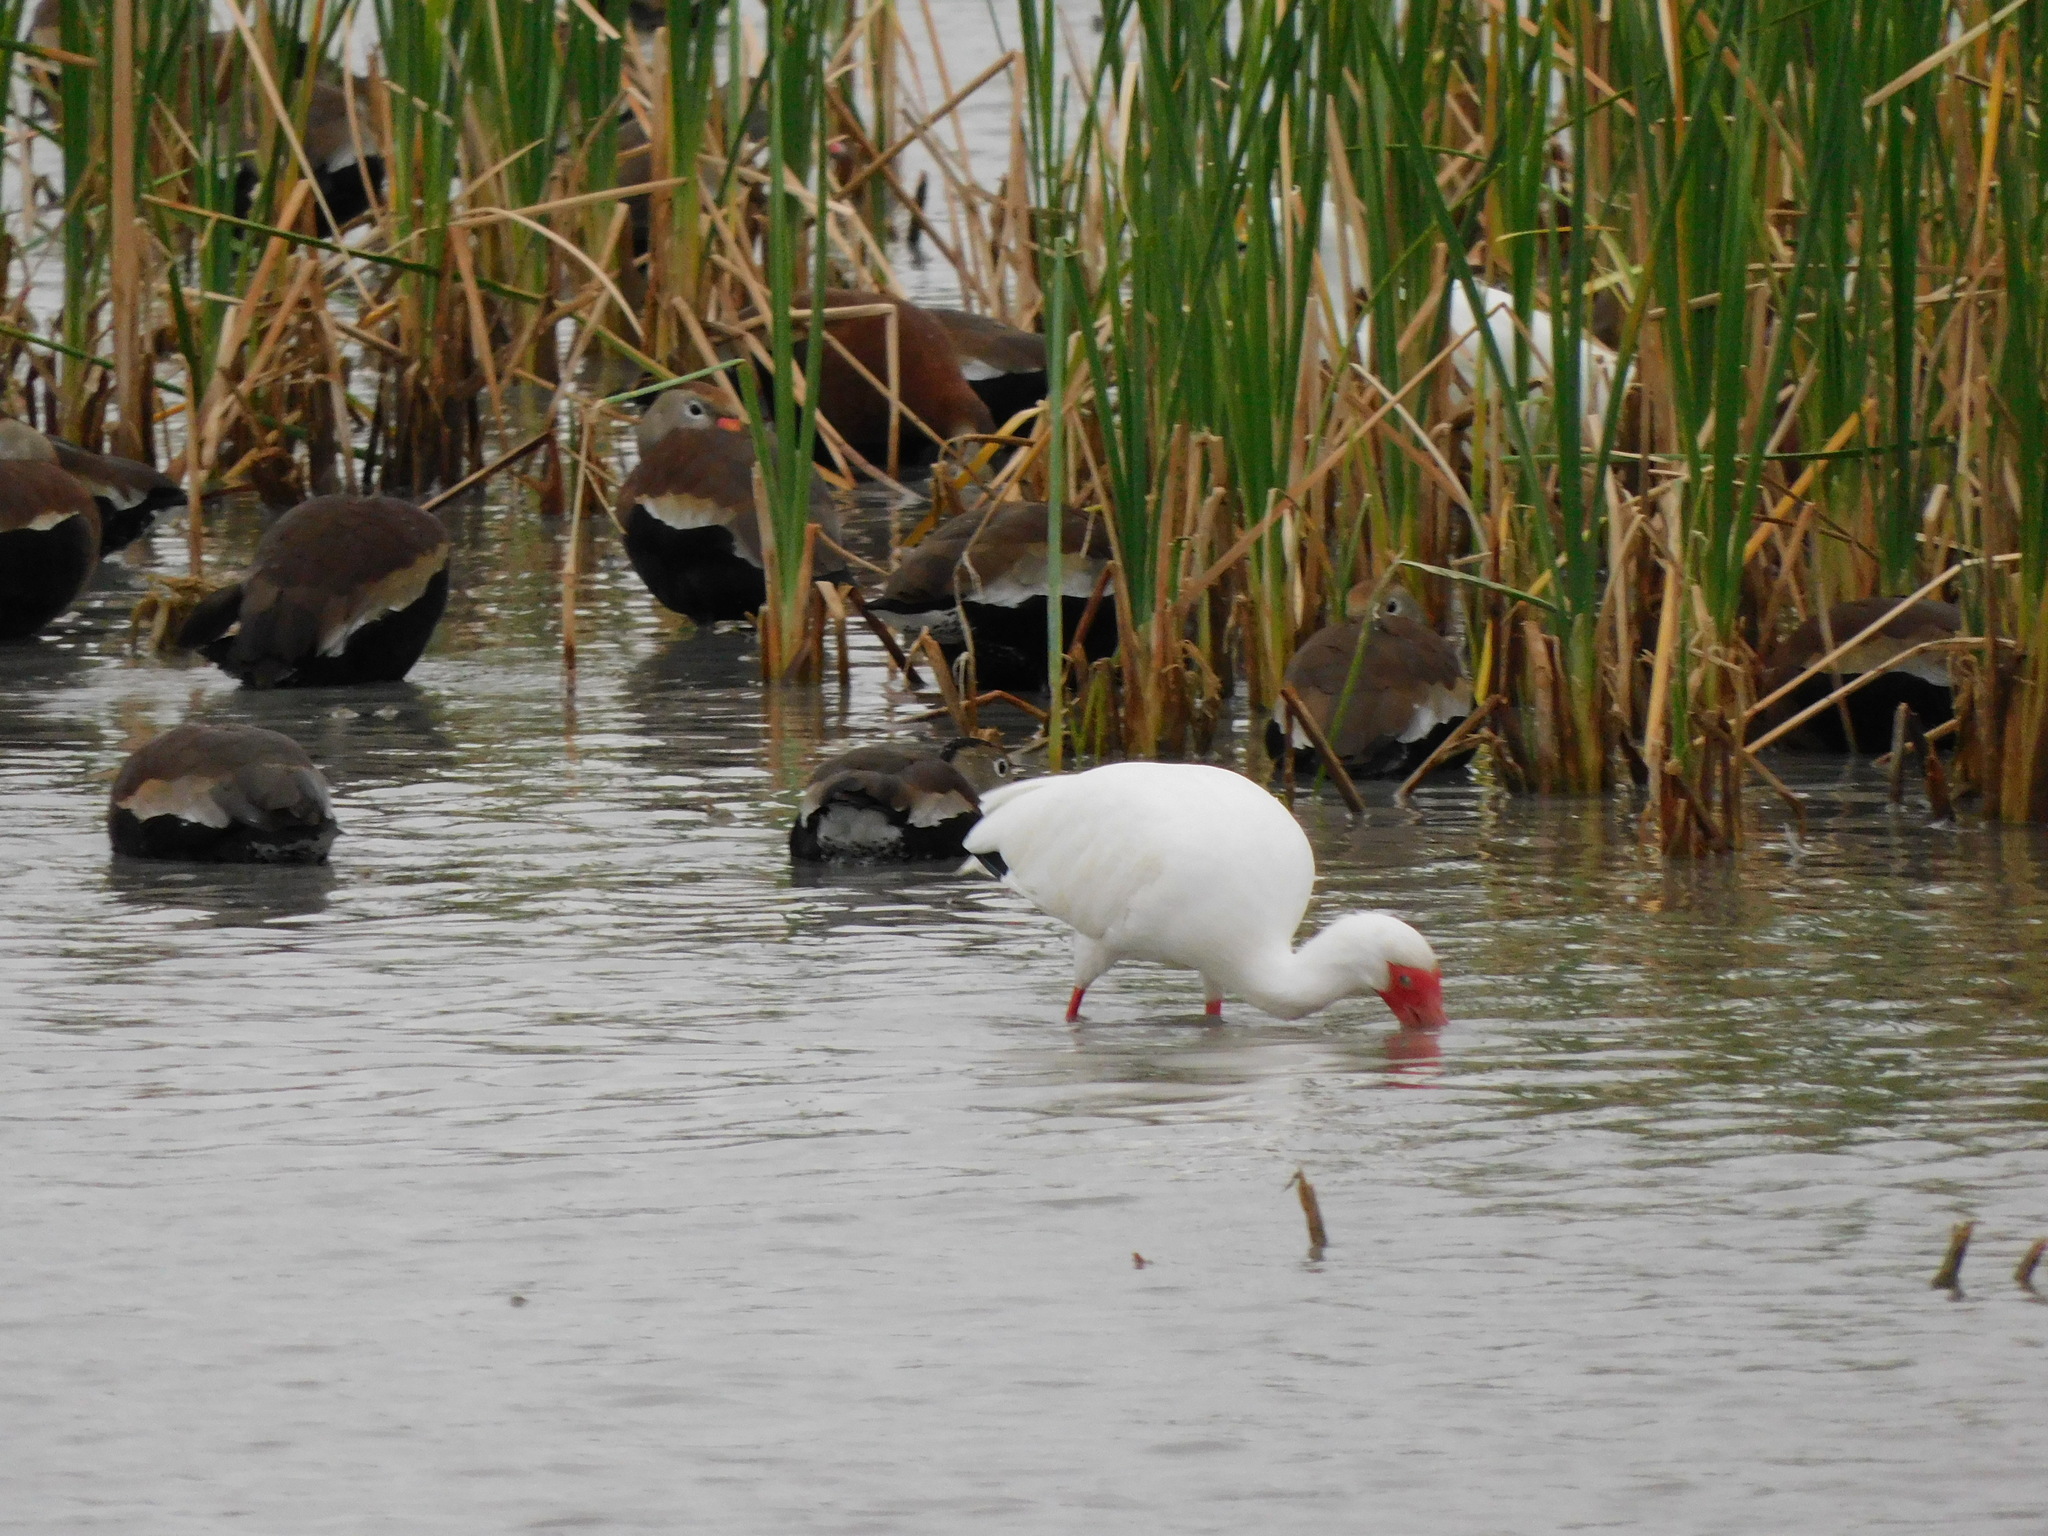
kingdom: Animalia
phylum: Chordata
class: Aves
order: Pelecaniformes
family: Threskiornithidae
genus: Eudocimus
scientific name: Eudocimus albus
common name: White ibis
